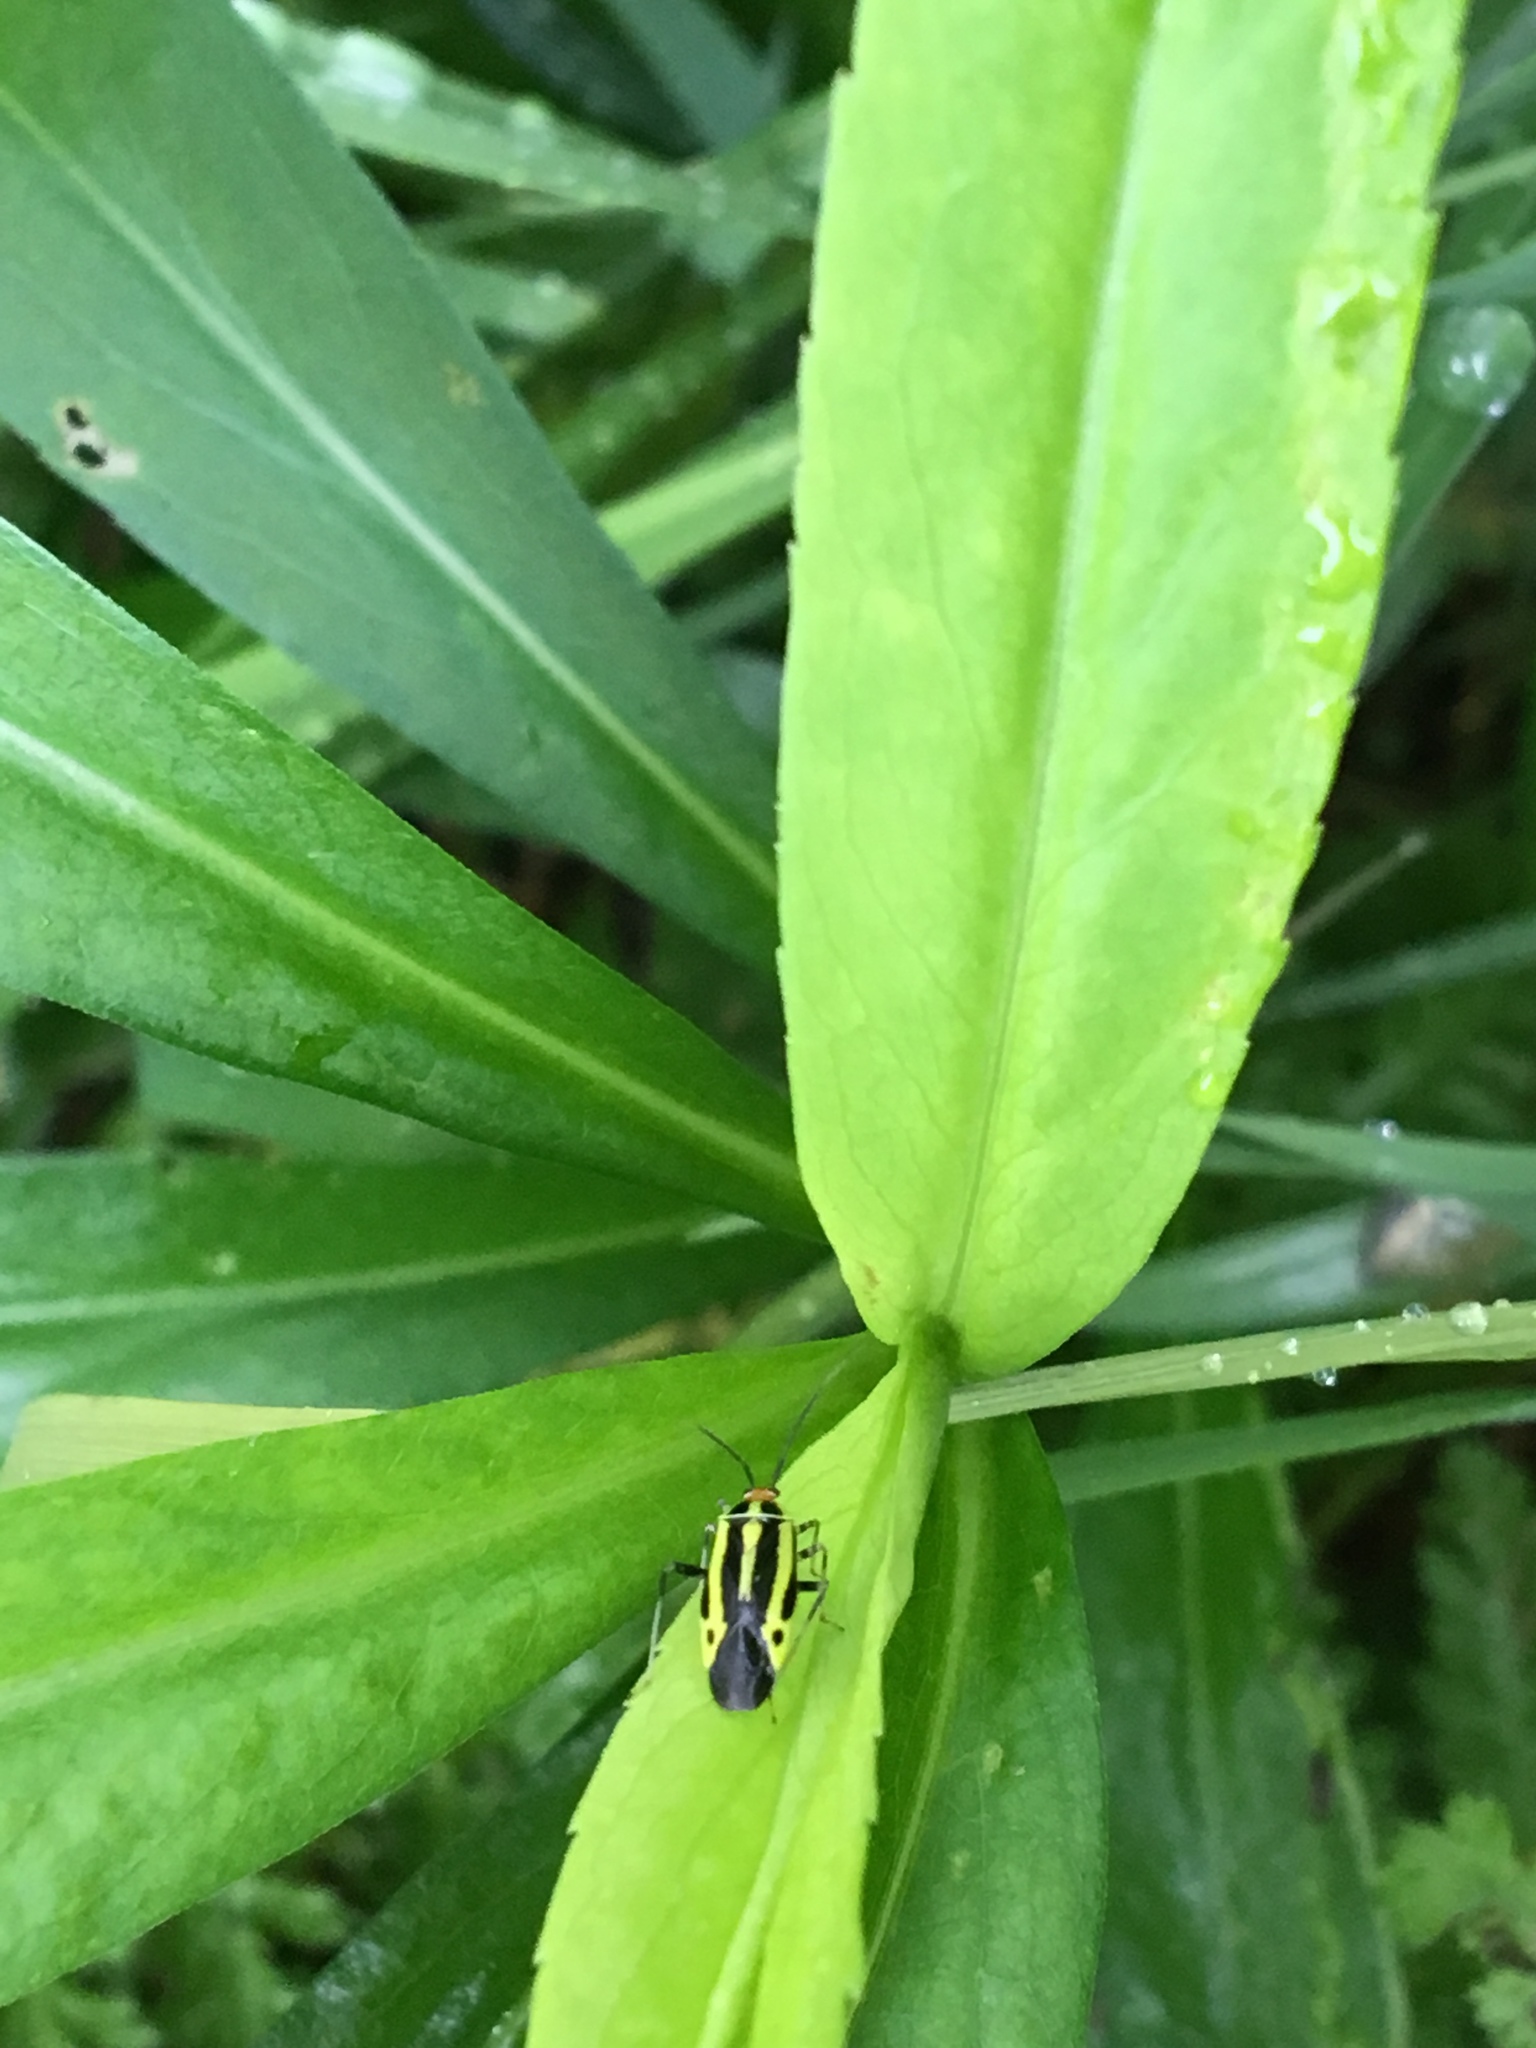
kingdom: Animalia
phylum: Arthropoda
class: Insecta
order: Hemiptera
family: Miridae
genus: Poecilocapsus
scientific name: Poecilocapsus lineatus
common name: Four-lined plant bug
